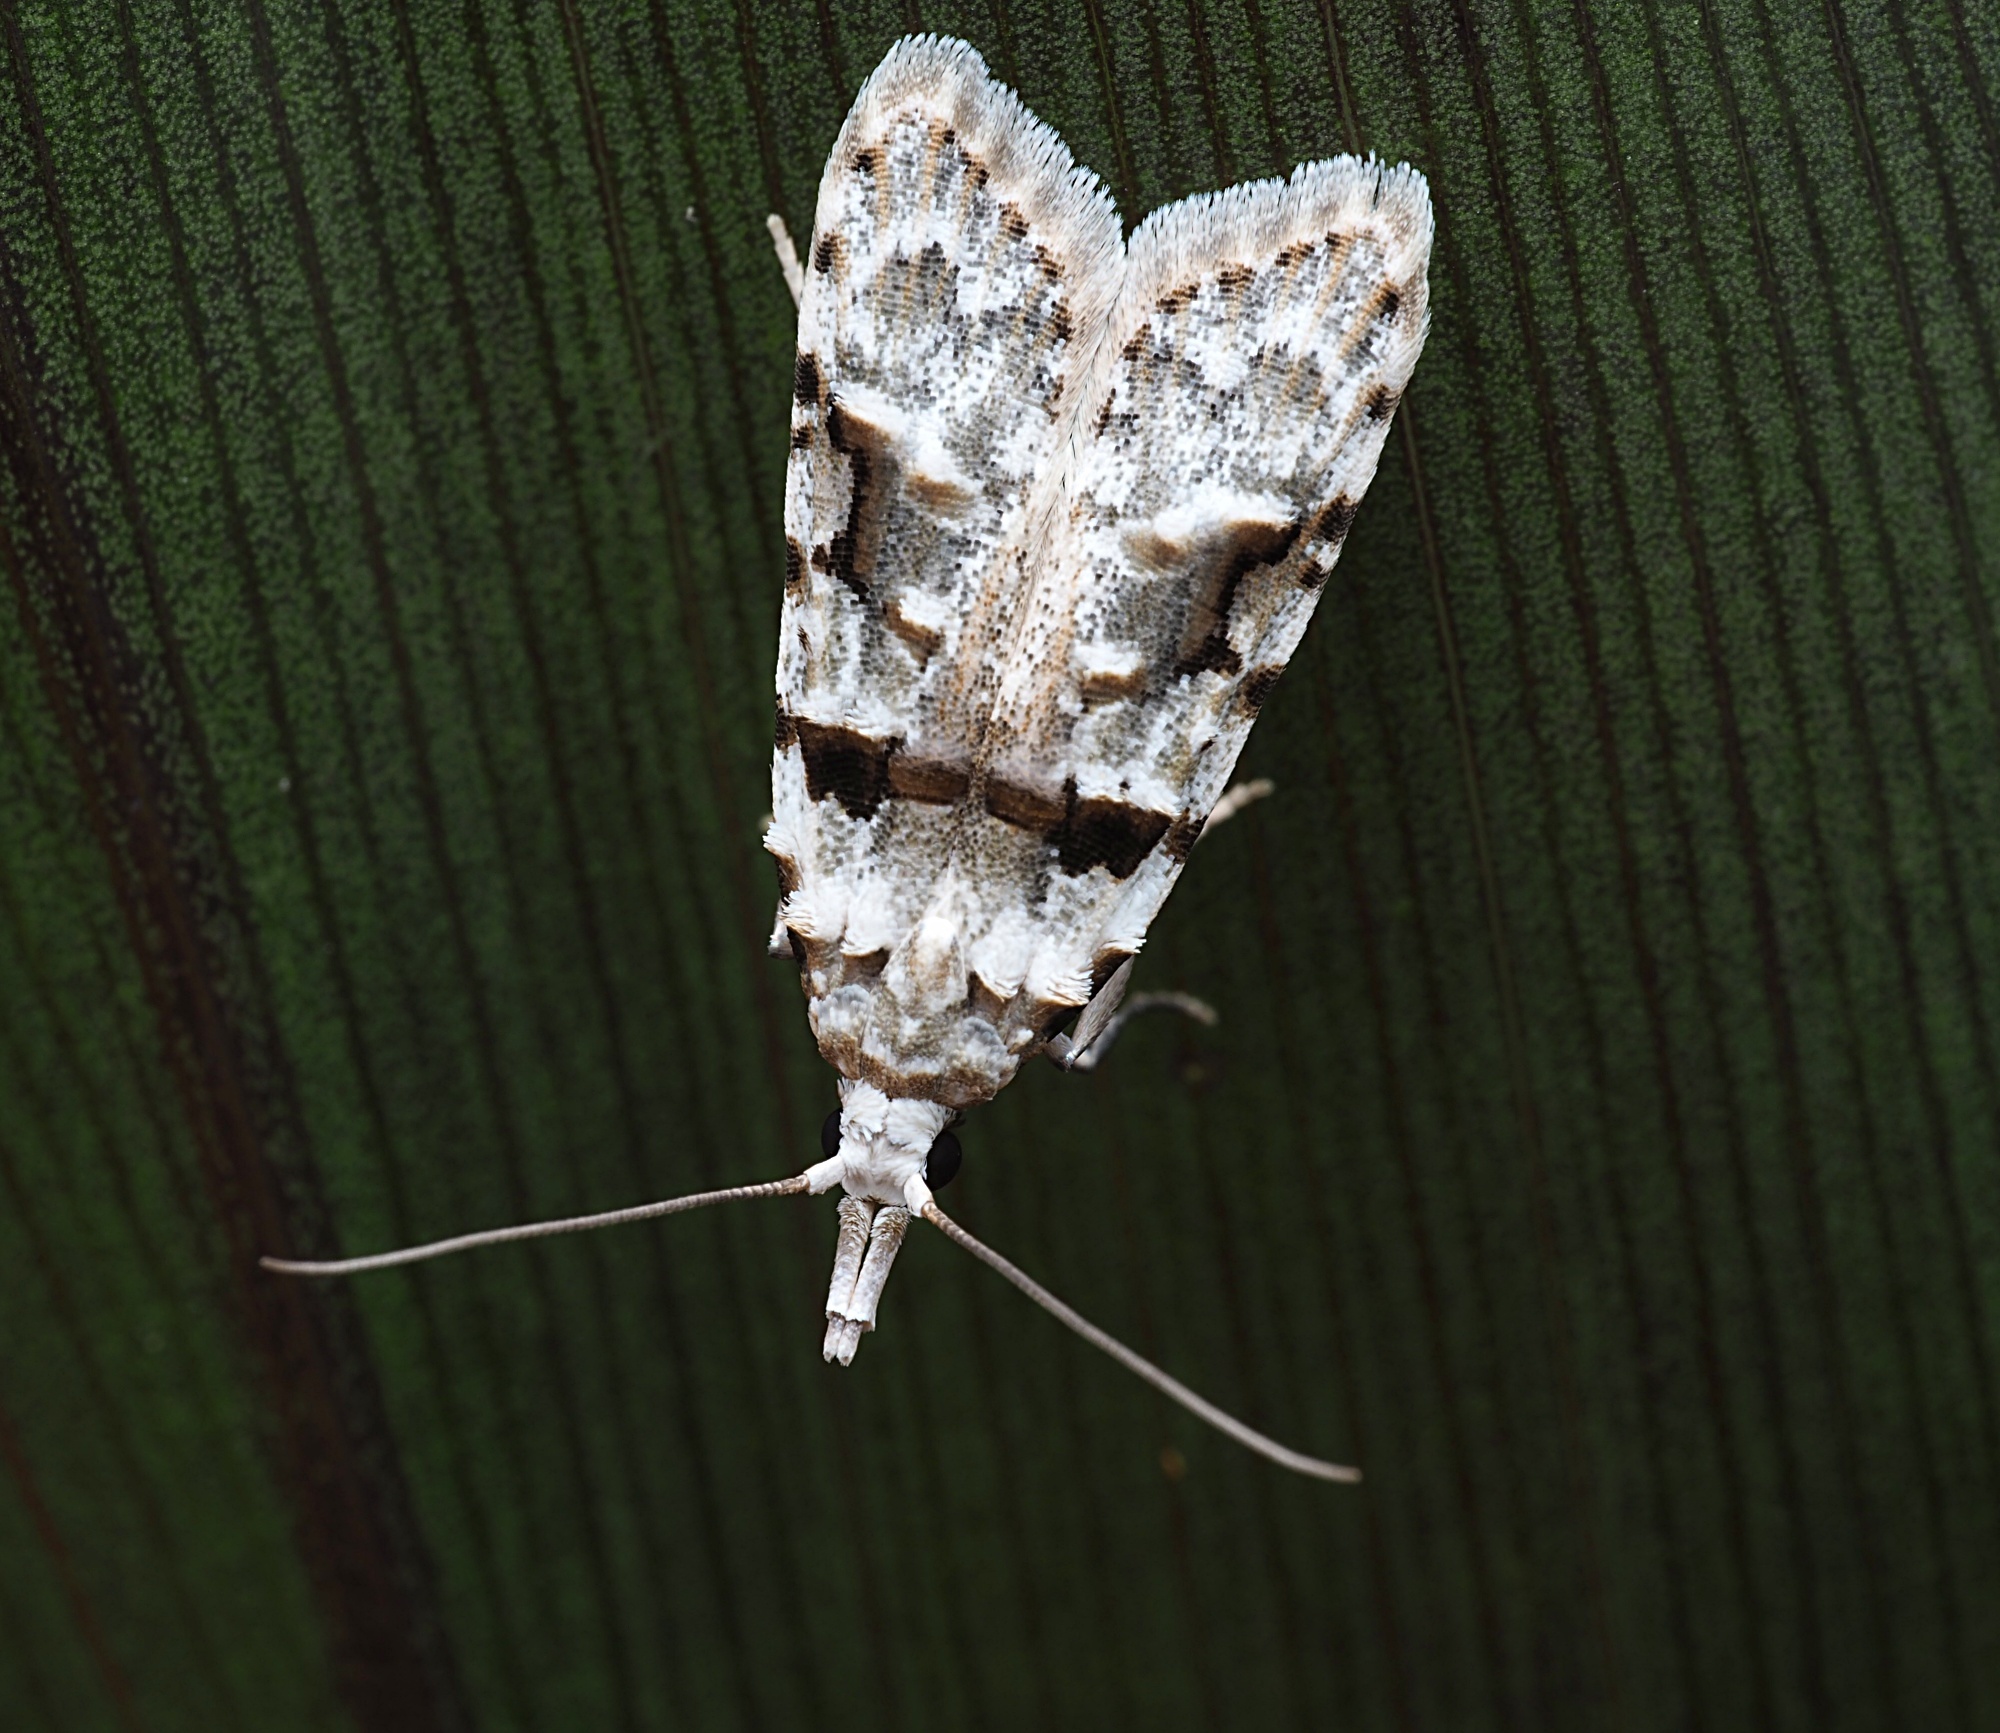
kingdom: Animalia
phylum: Arthropoda
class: Insecta
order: Lepidoptera
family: Carposinidae
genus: Coscinoptycha
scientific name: Coscinoptycha improbana
